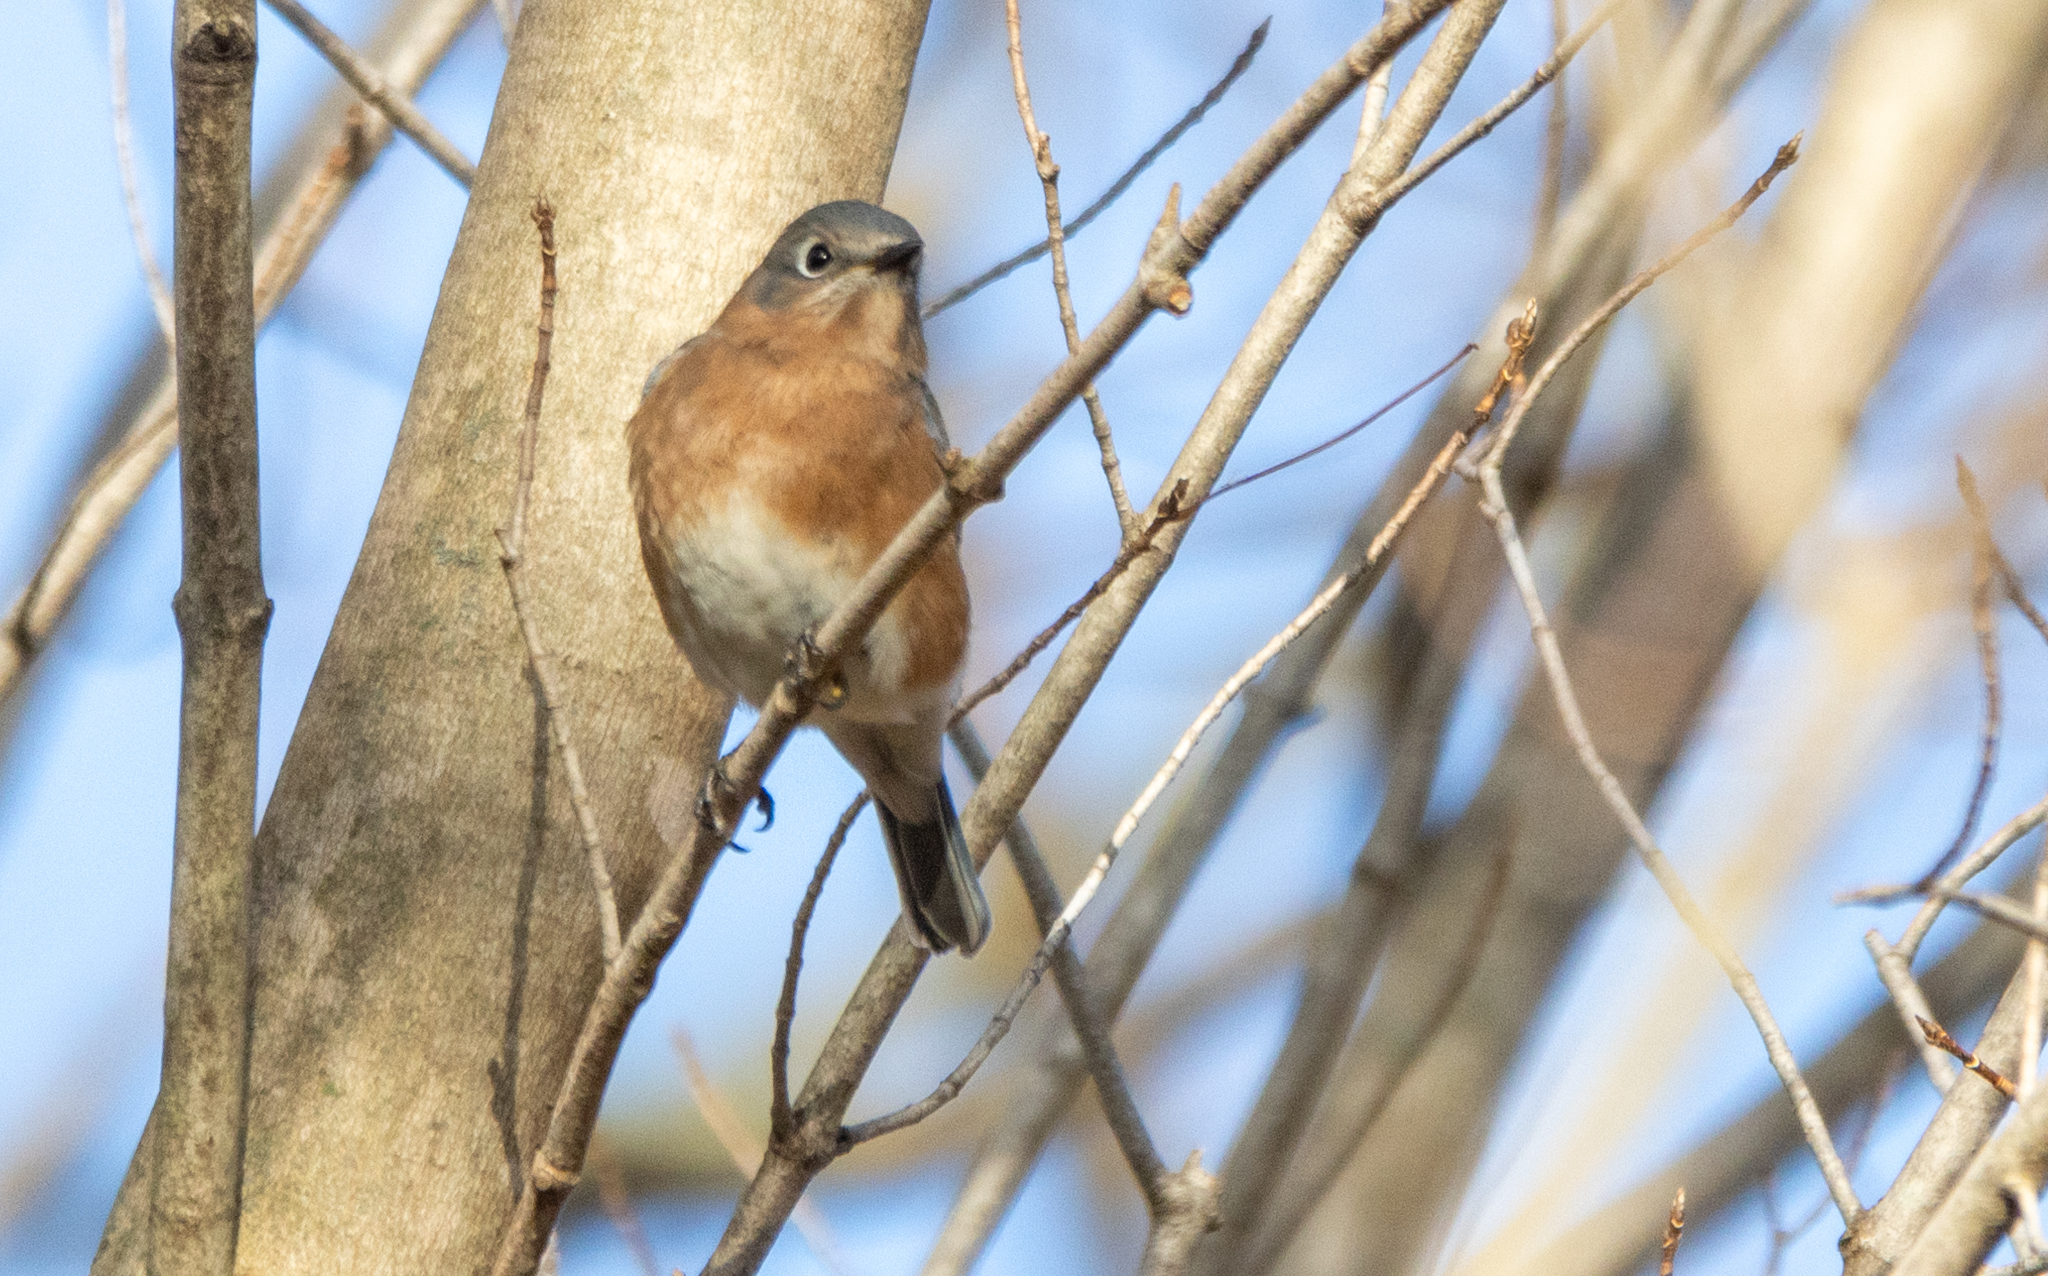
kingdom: Animalia
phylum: Chordata
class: Aves
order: Passeriformes
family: Turdidae
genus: Sialia
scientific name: Sialia sialis
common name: Eastern bluebird
